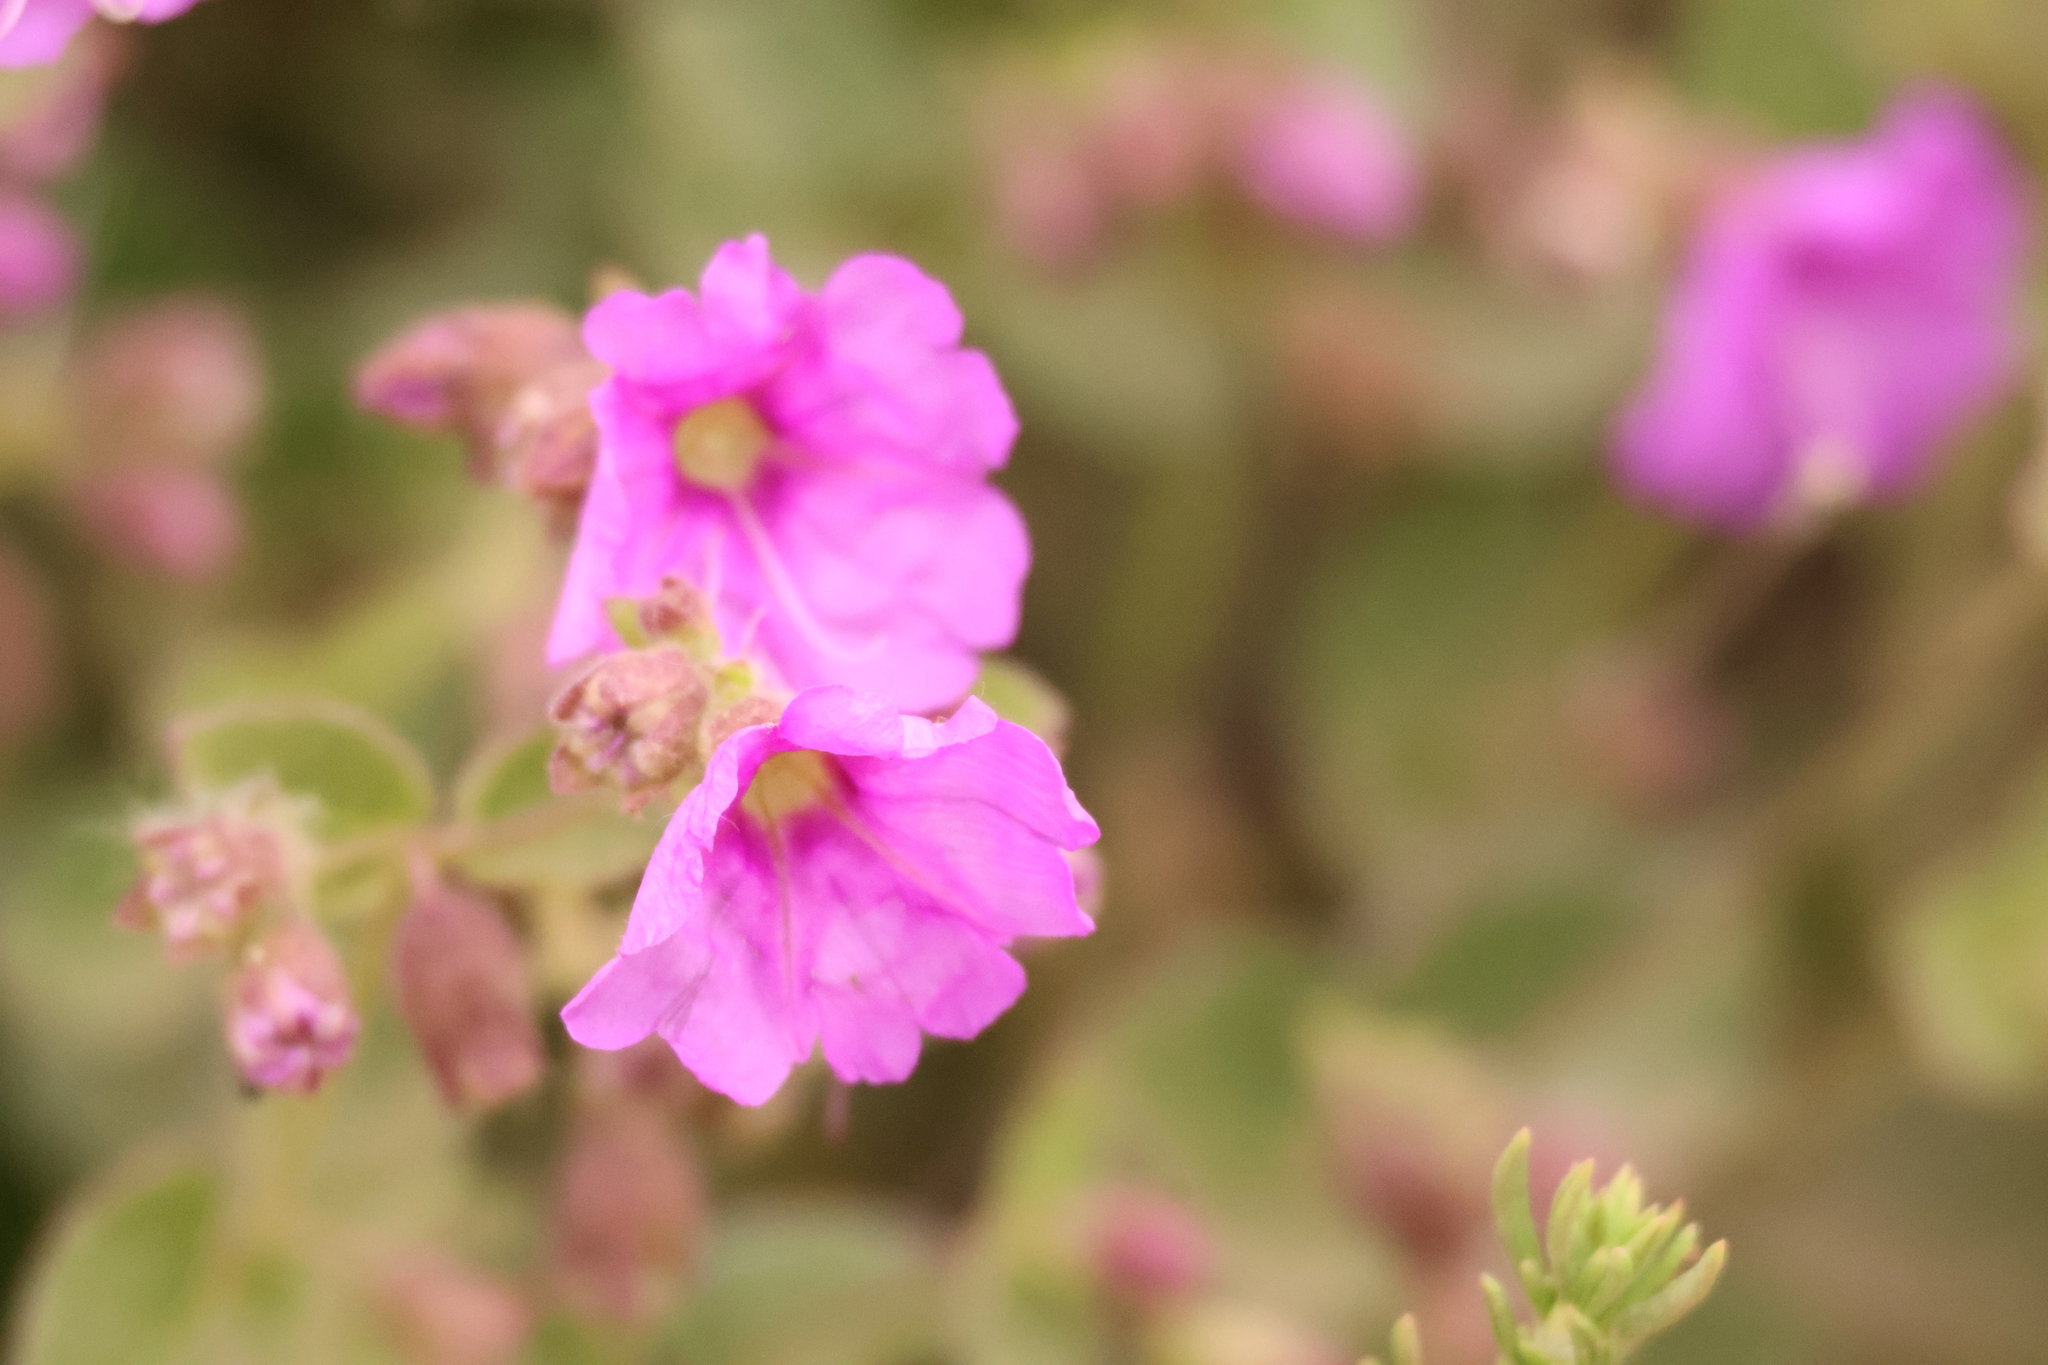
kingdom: Plantae
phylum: Tracheophyta
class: Magnoliopsida
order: Caryophyllales
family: Nyctaginaceae
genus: Mirabilis
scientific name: Mirabilis laevis
